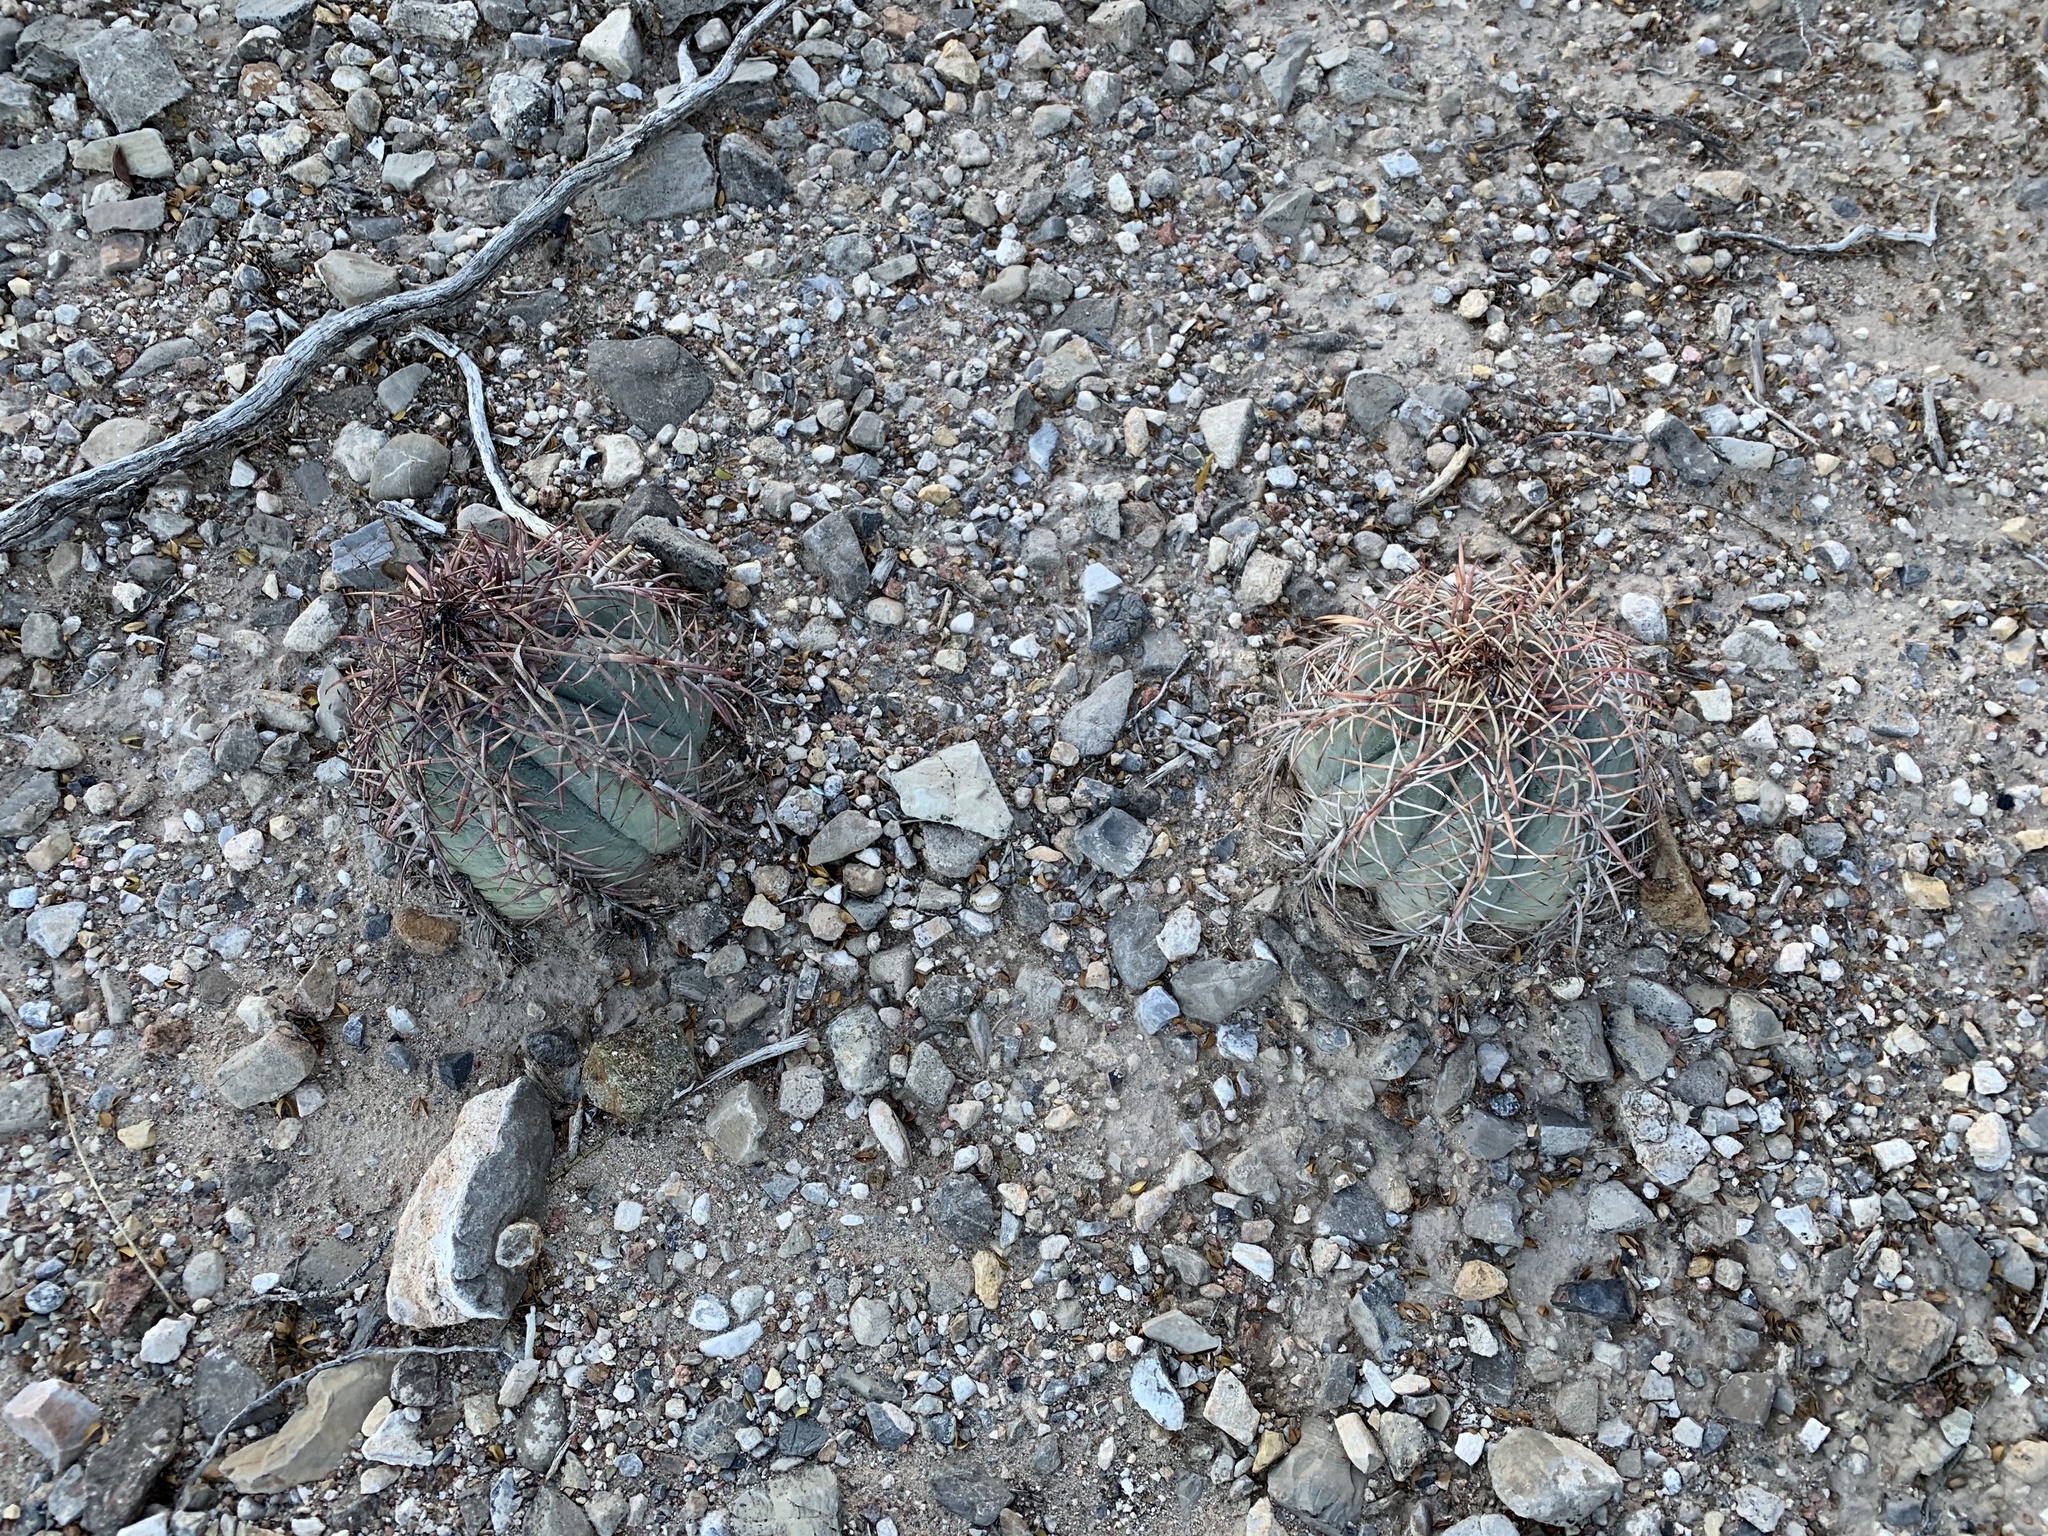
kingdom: Plantae
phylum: Tracheophyta
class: Magnoliopsida
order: Caryophyllales
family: Cactaceae
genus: Echinocactus
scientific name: Echinocactus horizonthalonius
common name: Devilshead
